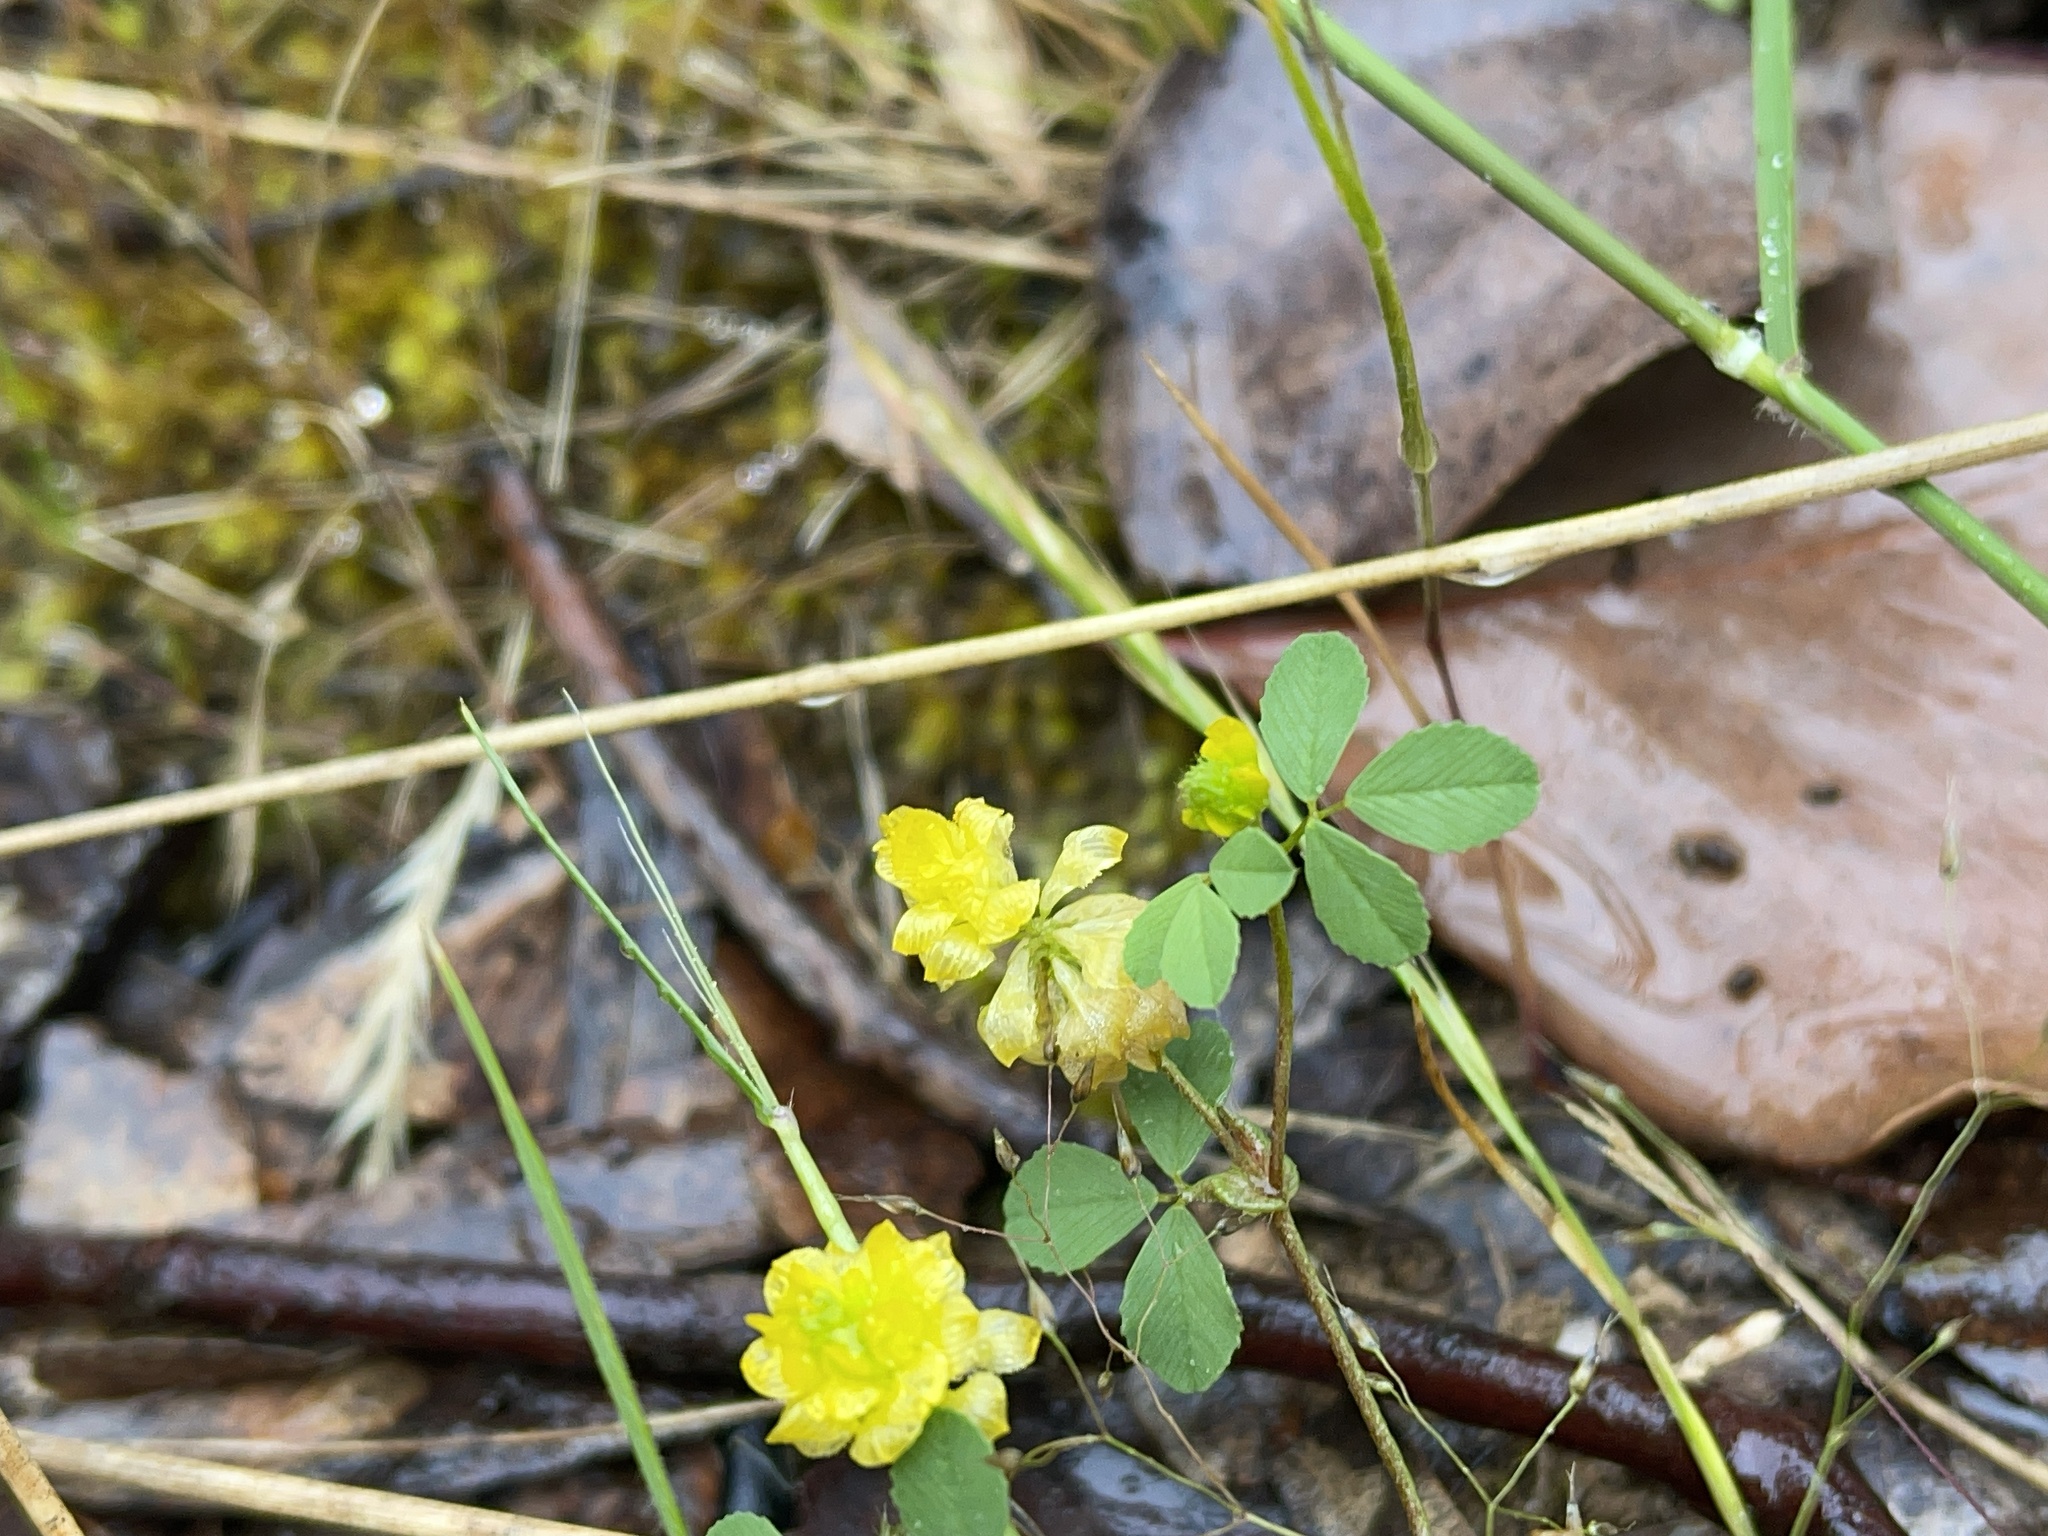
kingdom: Plantae
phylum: Tracheophyta
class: Magnoliopsida
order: Fabales
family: Fabaceae
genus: Trifolium
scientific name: Trifolium campestre
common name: Field clover
